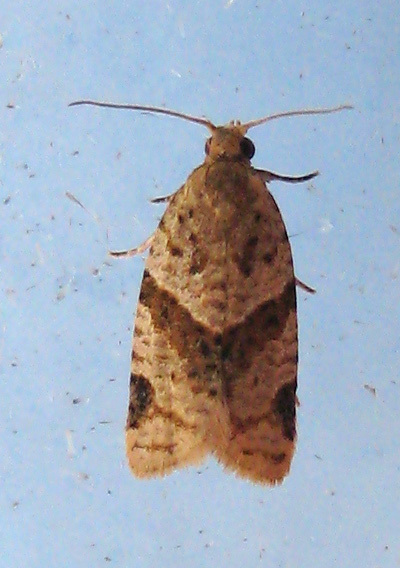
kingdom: Animalia
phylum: Arthropoda
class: Insecta
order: Lepidoptera
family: Tortricidae
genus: Clepsis
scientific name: Clepsis peritana
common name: Garden tortrix
